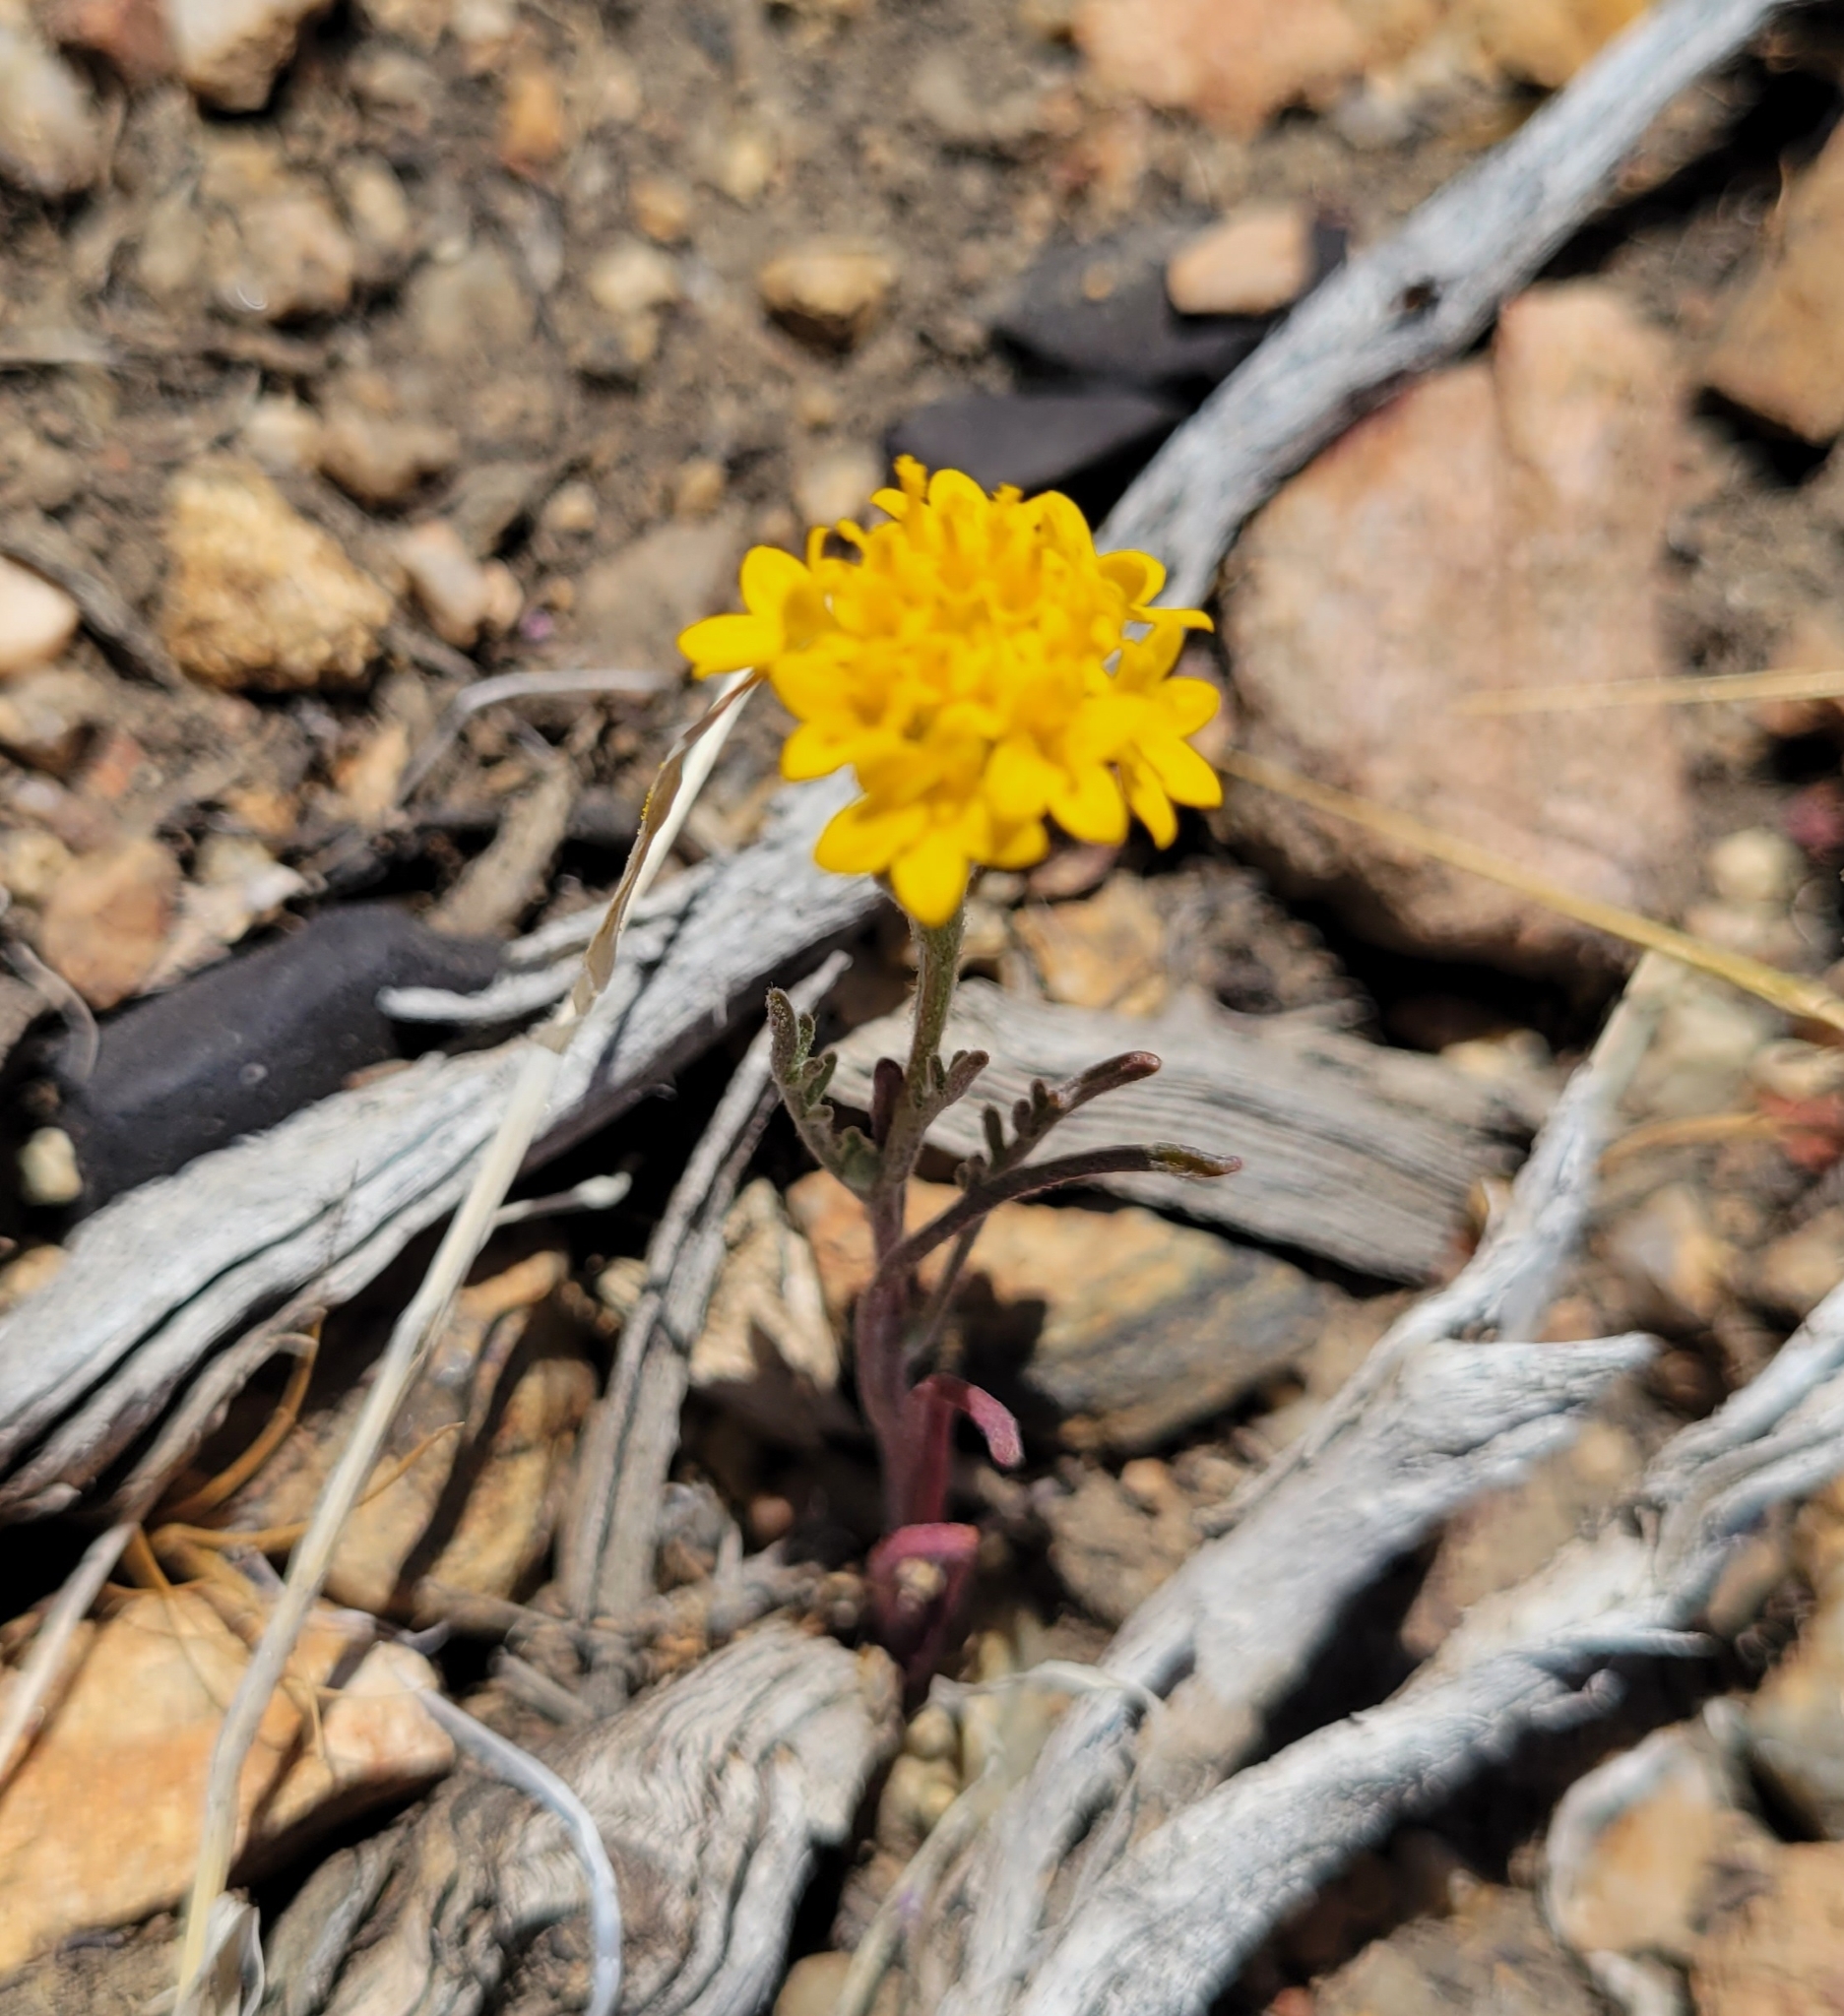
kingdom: Plantae
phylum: Tracheophyta
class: Magnoliopsida
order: Asterales
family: Asteraceae
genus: Chaenactis
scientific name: Chaenactis glabriuscula
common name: Yellow pincushion
